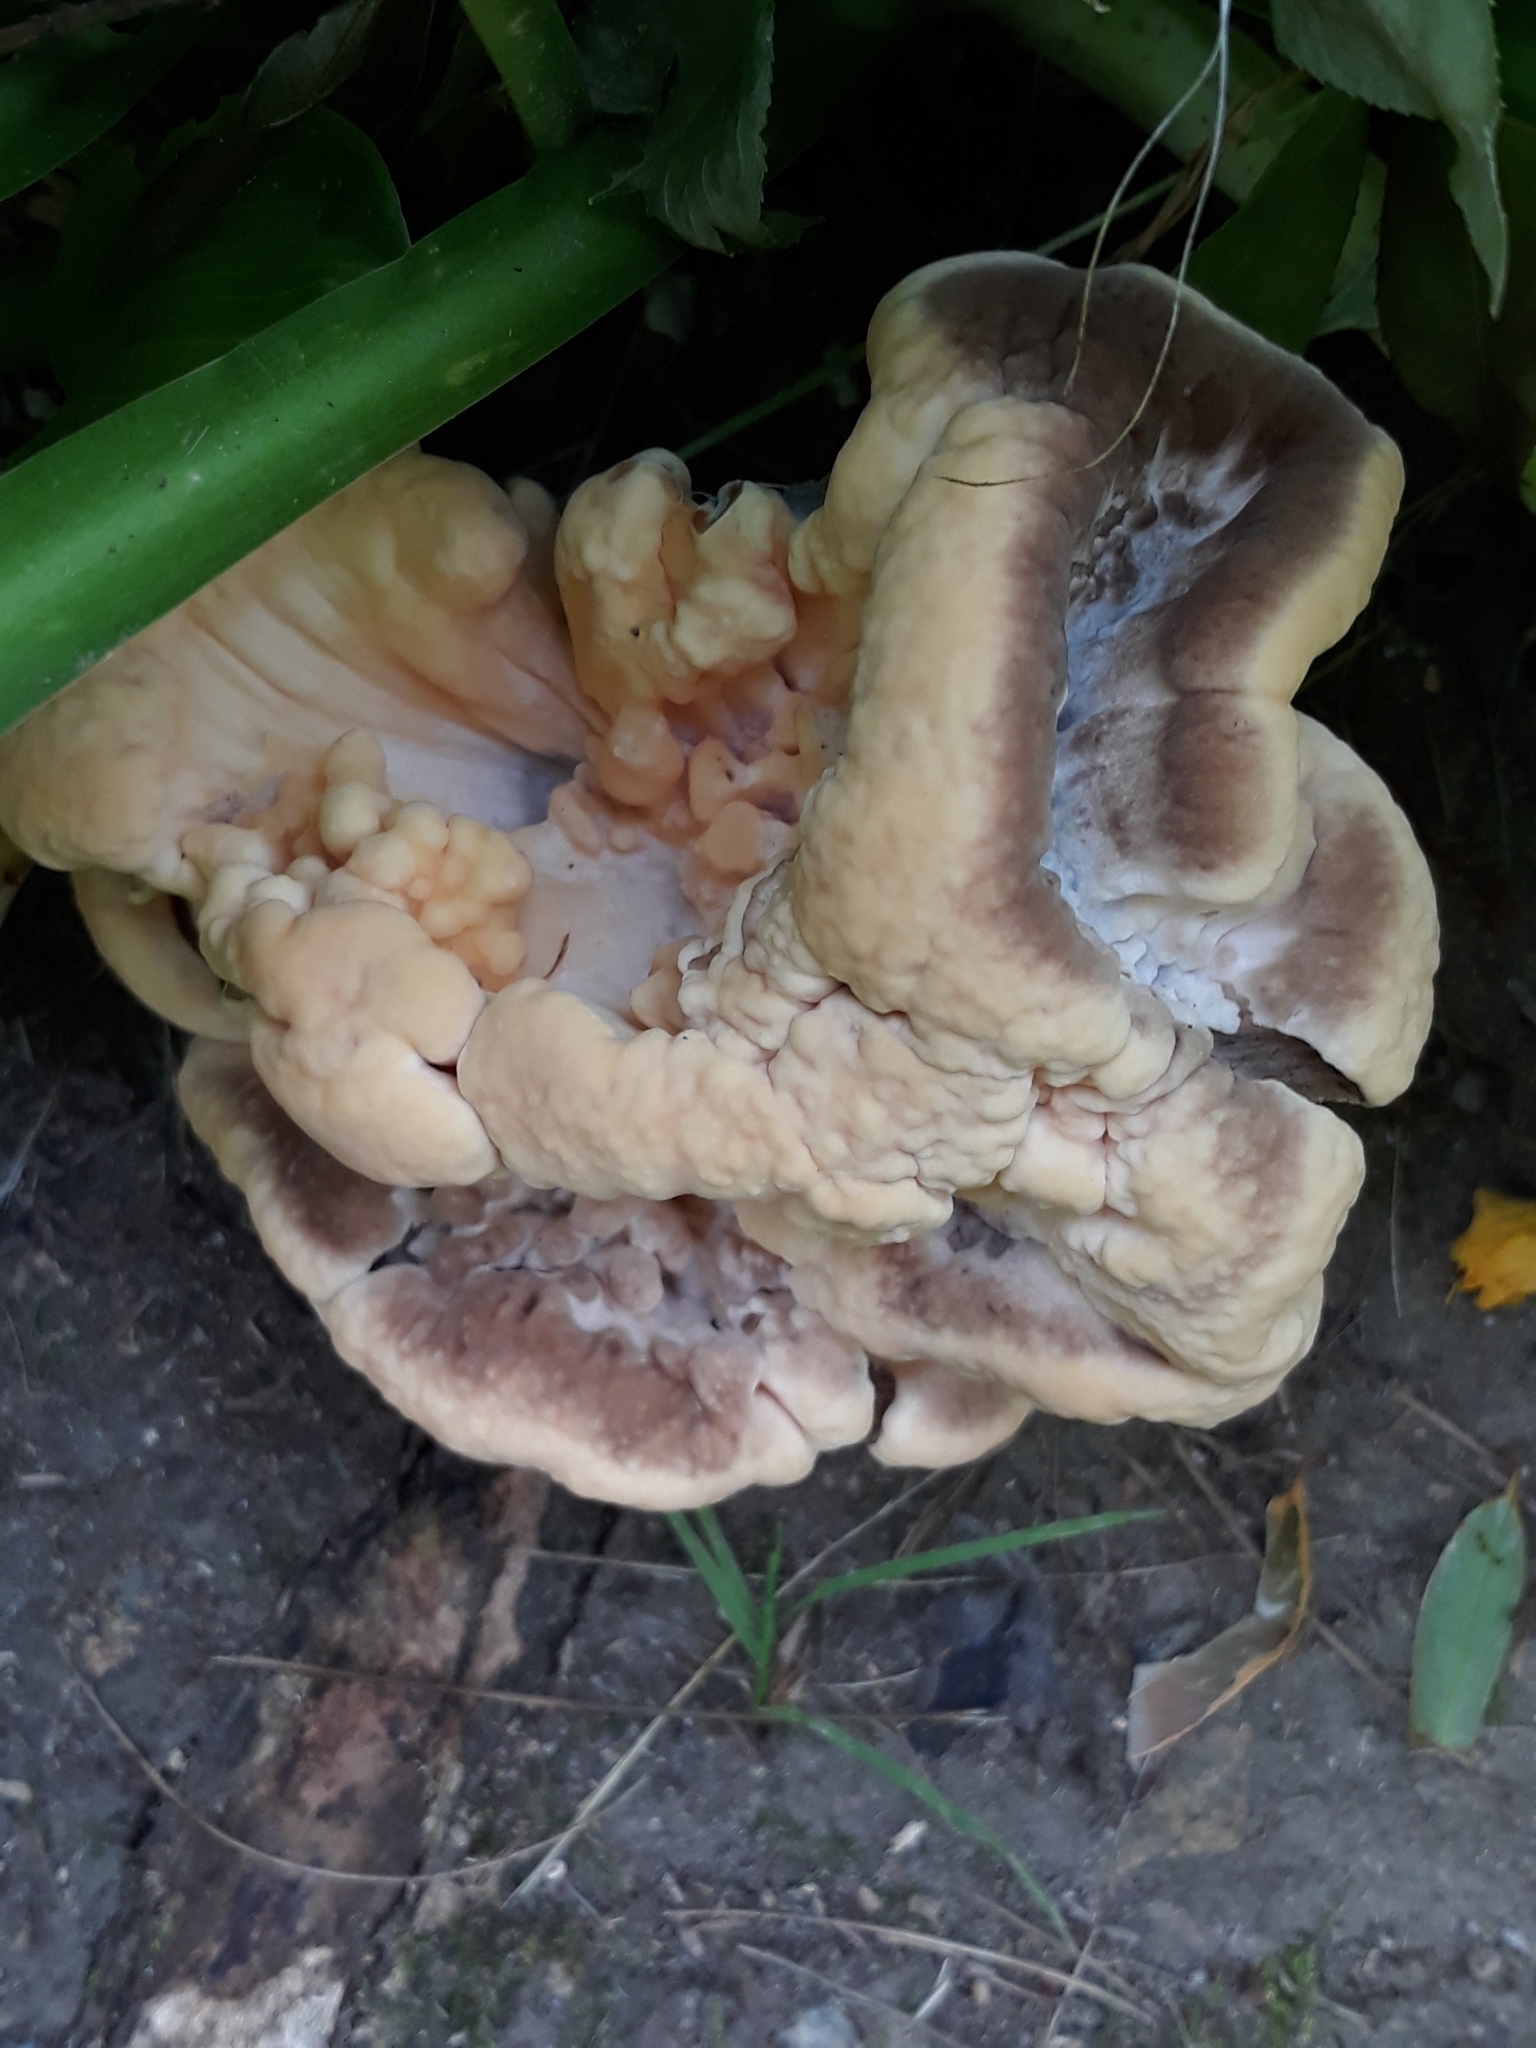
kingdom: Fungi
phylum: Basidiomycota
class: Agaricomycetes
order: Polyporales
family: Meripilaceae
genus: Meripilus
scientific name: Meripilus sumstinei
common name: Black-staining polypore
